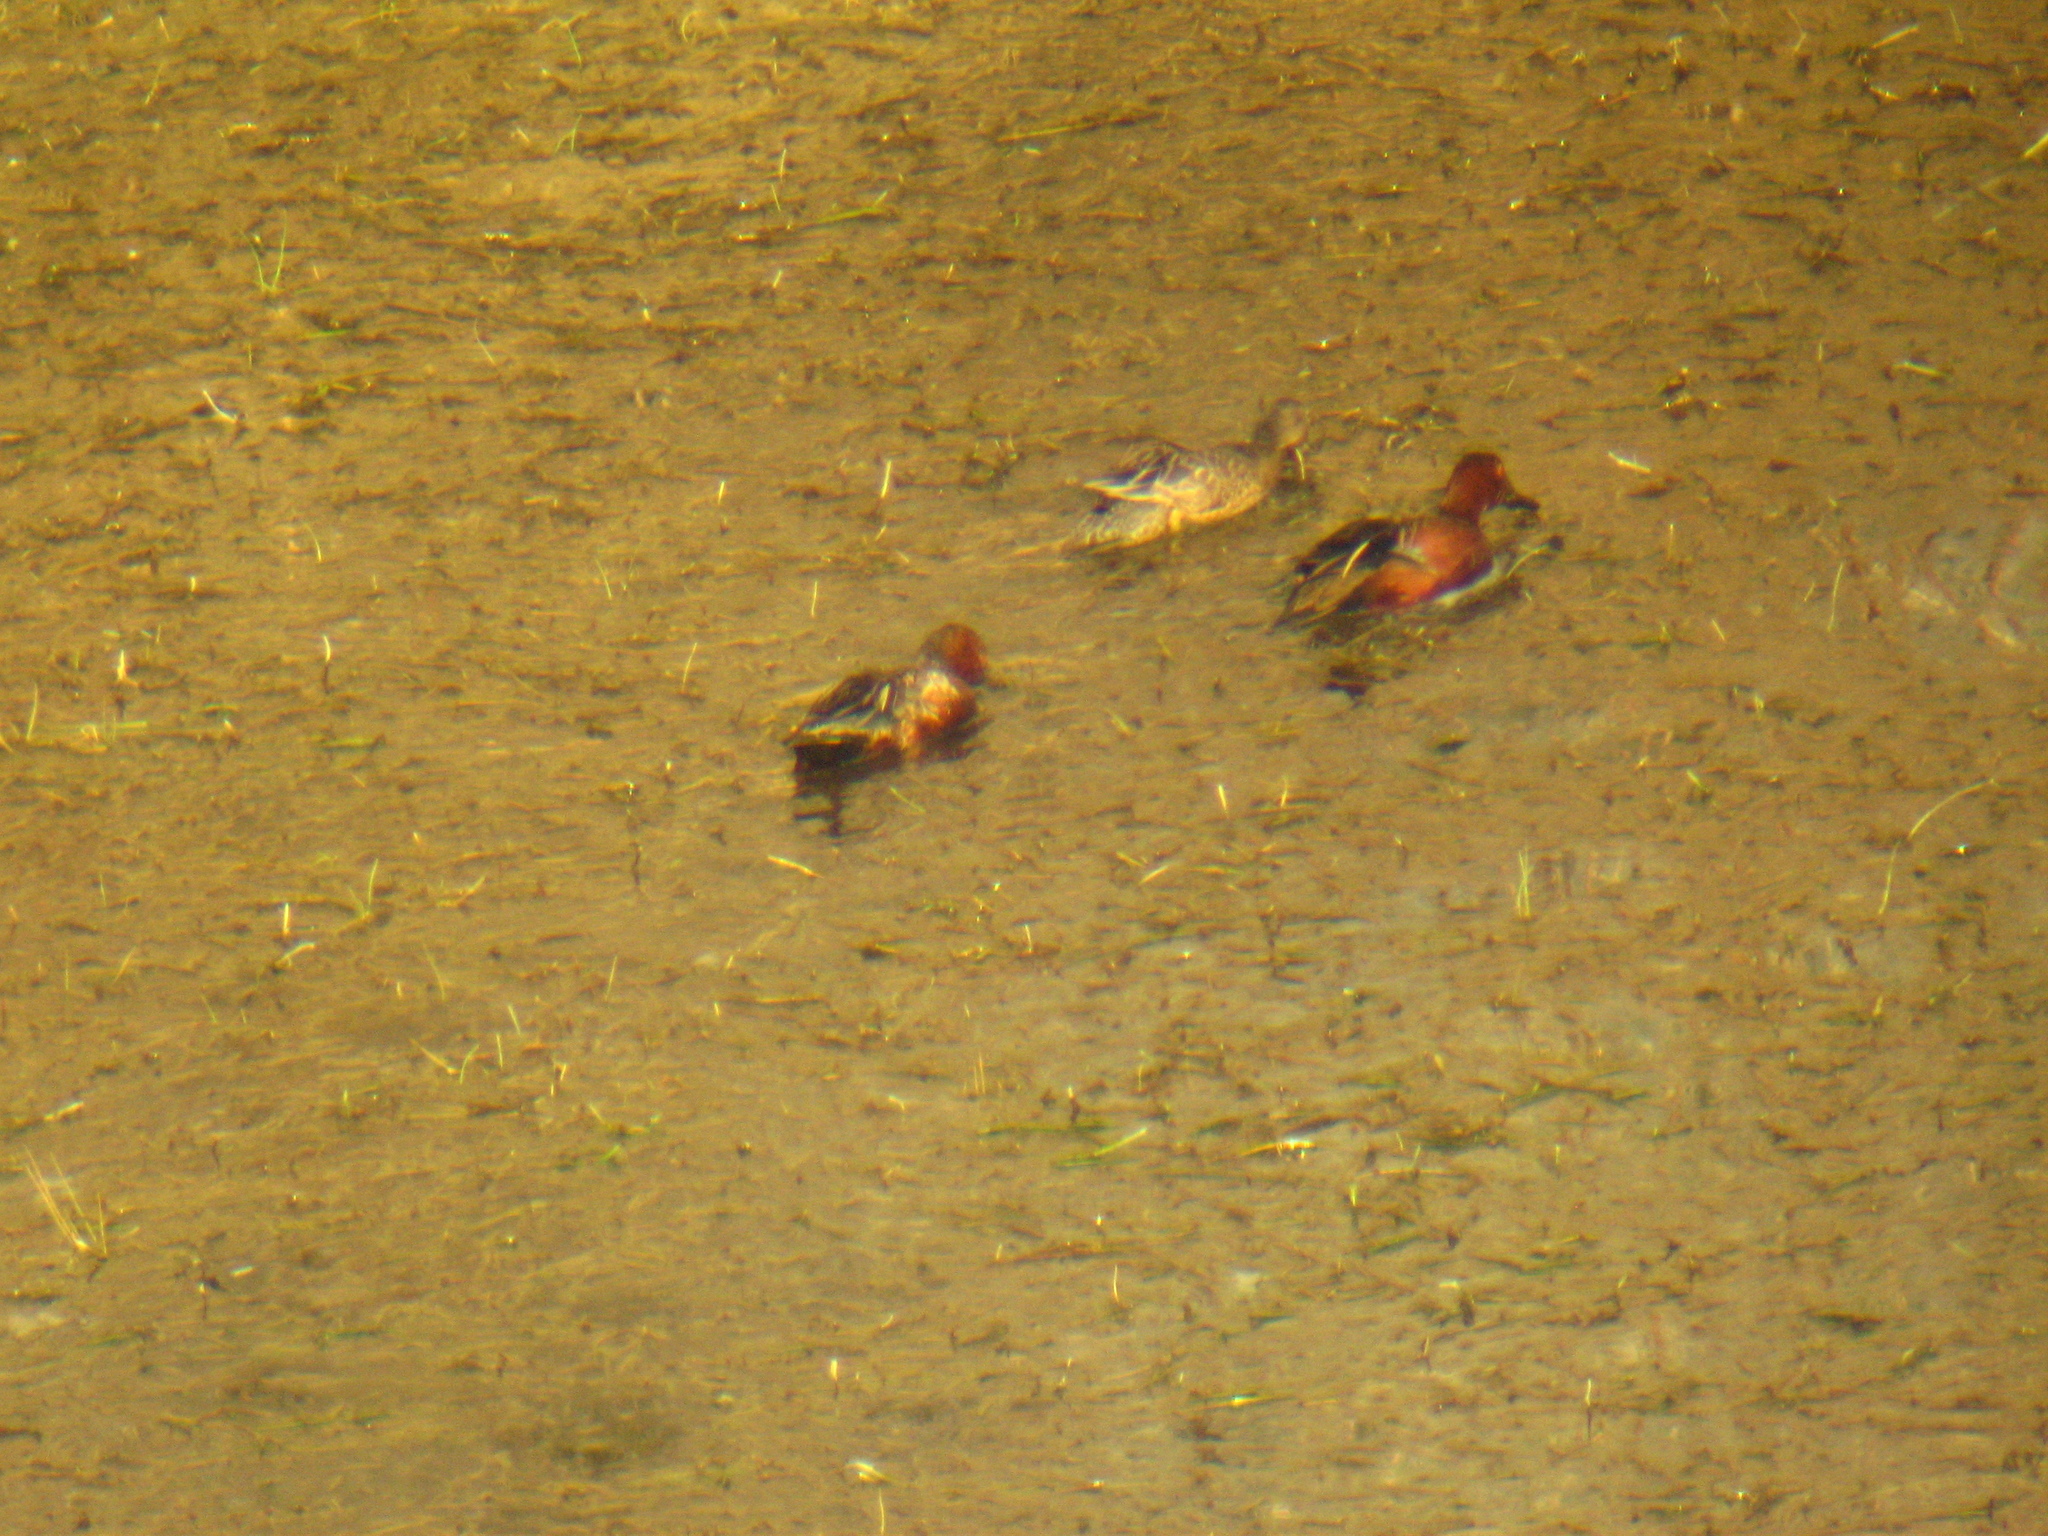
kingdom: Animalia
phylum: Chordata
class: Aves
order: Anseriformes
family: Anatidae
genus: Spatula
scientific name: Spatula cyanoptera
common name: Cinnamon teal
